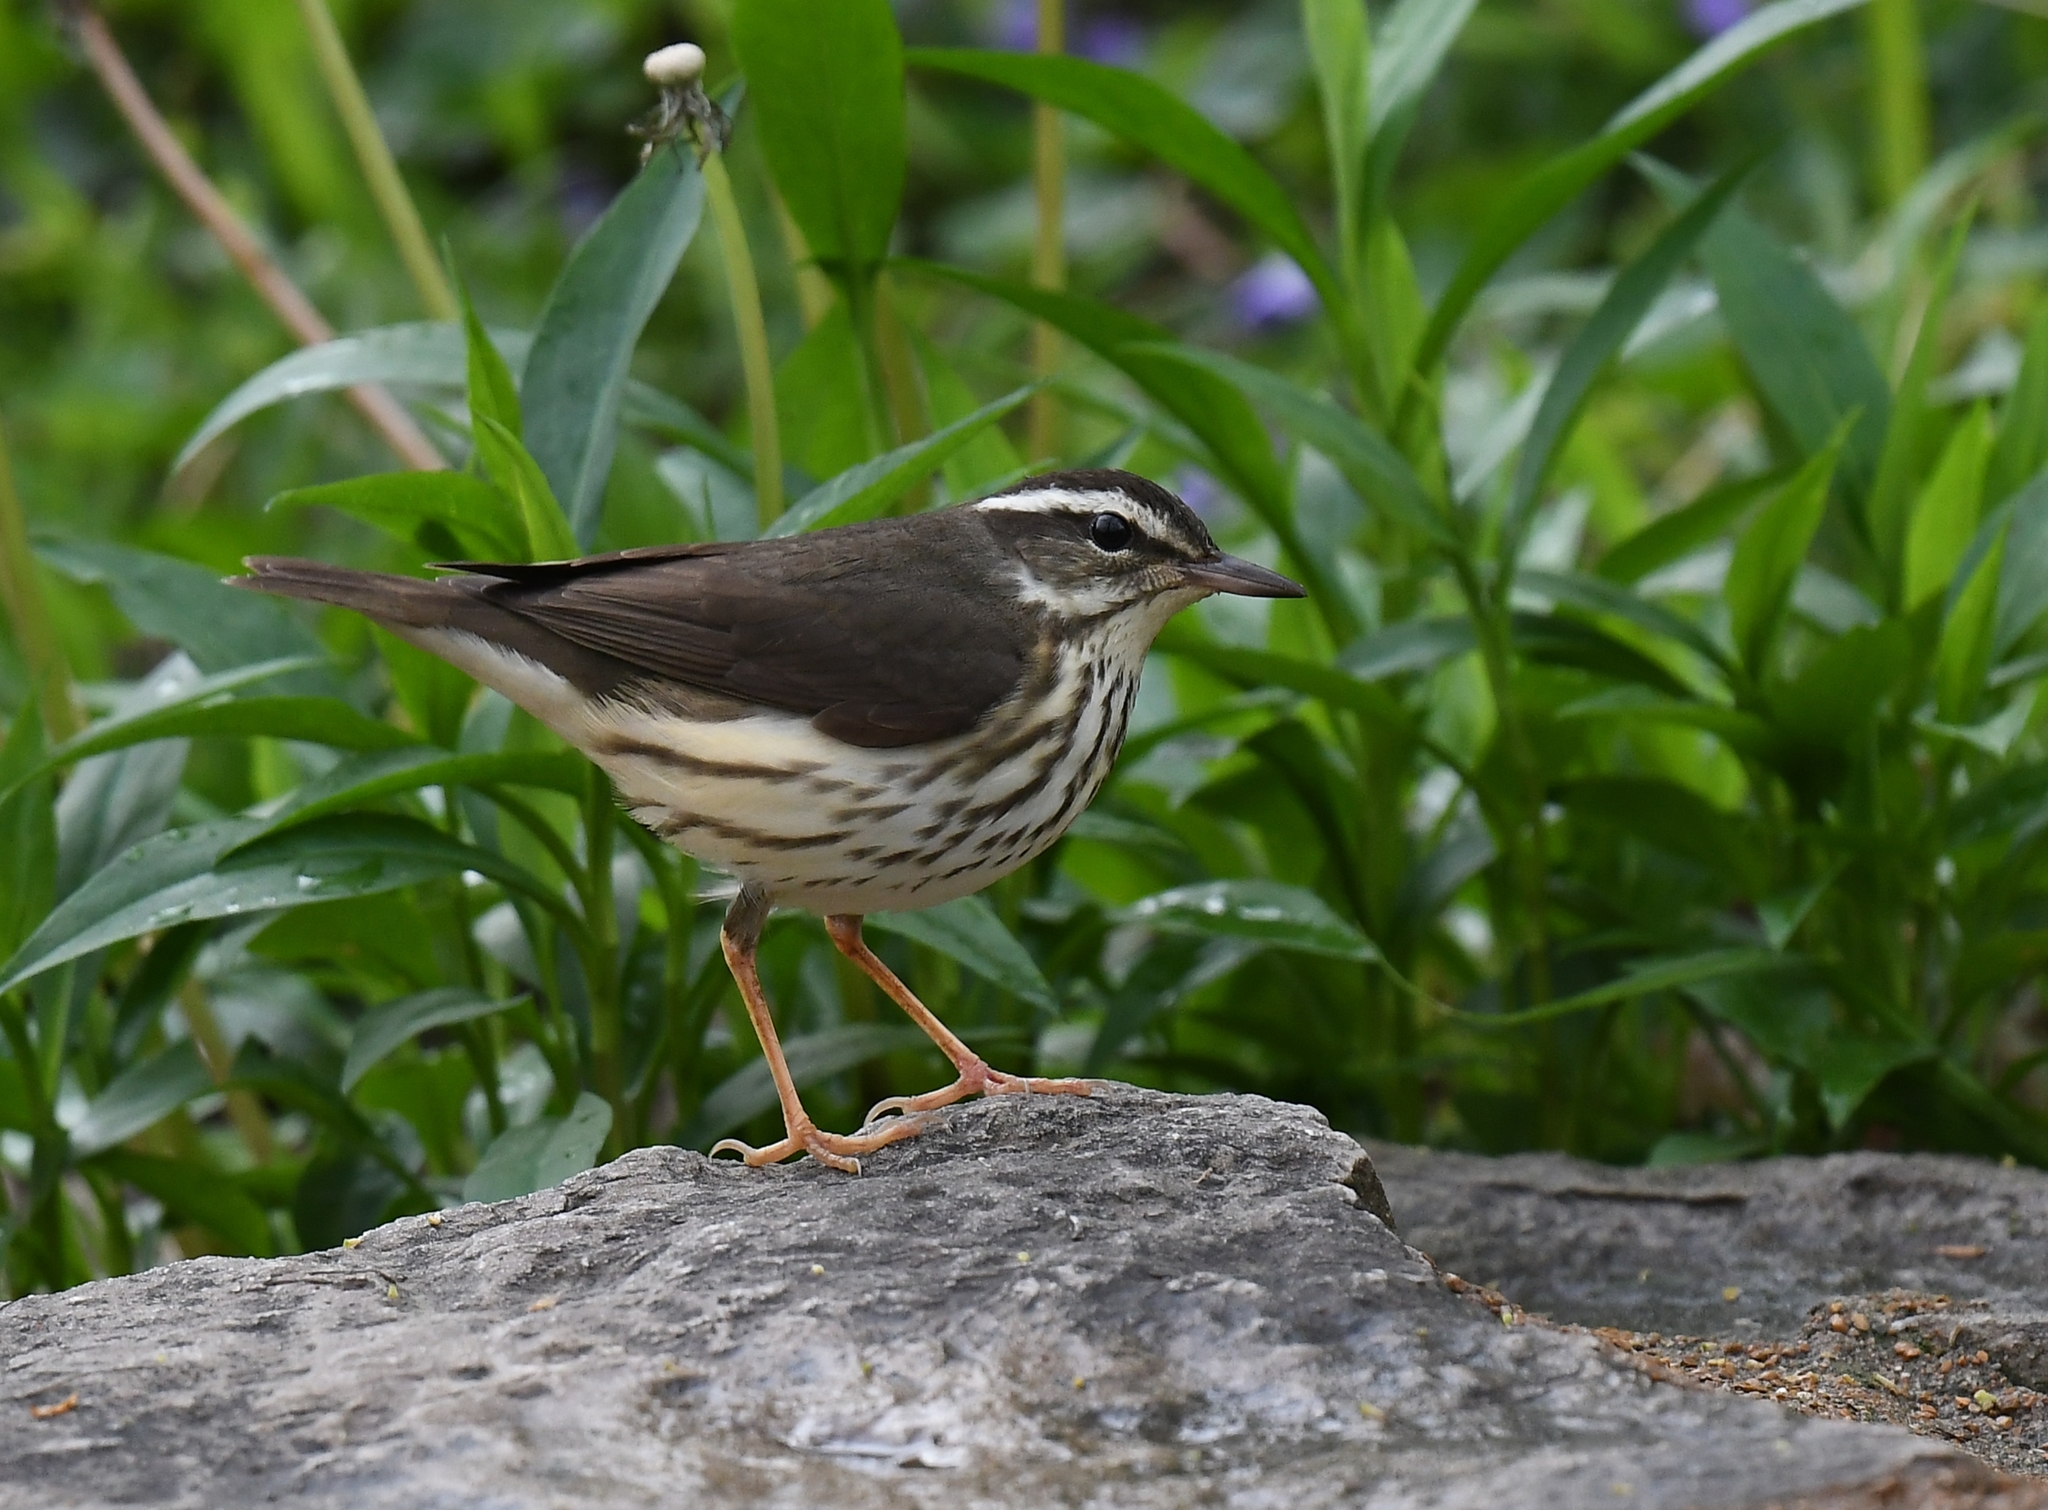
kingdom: Animalia
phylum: Chordata
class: Aves
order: Passeriformes
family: Parulidae
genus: Parkesia
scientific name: Parkesia motacilla
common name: Louisiana waterthrush
